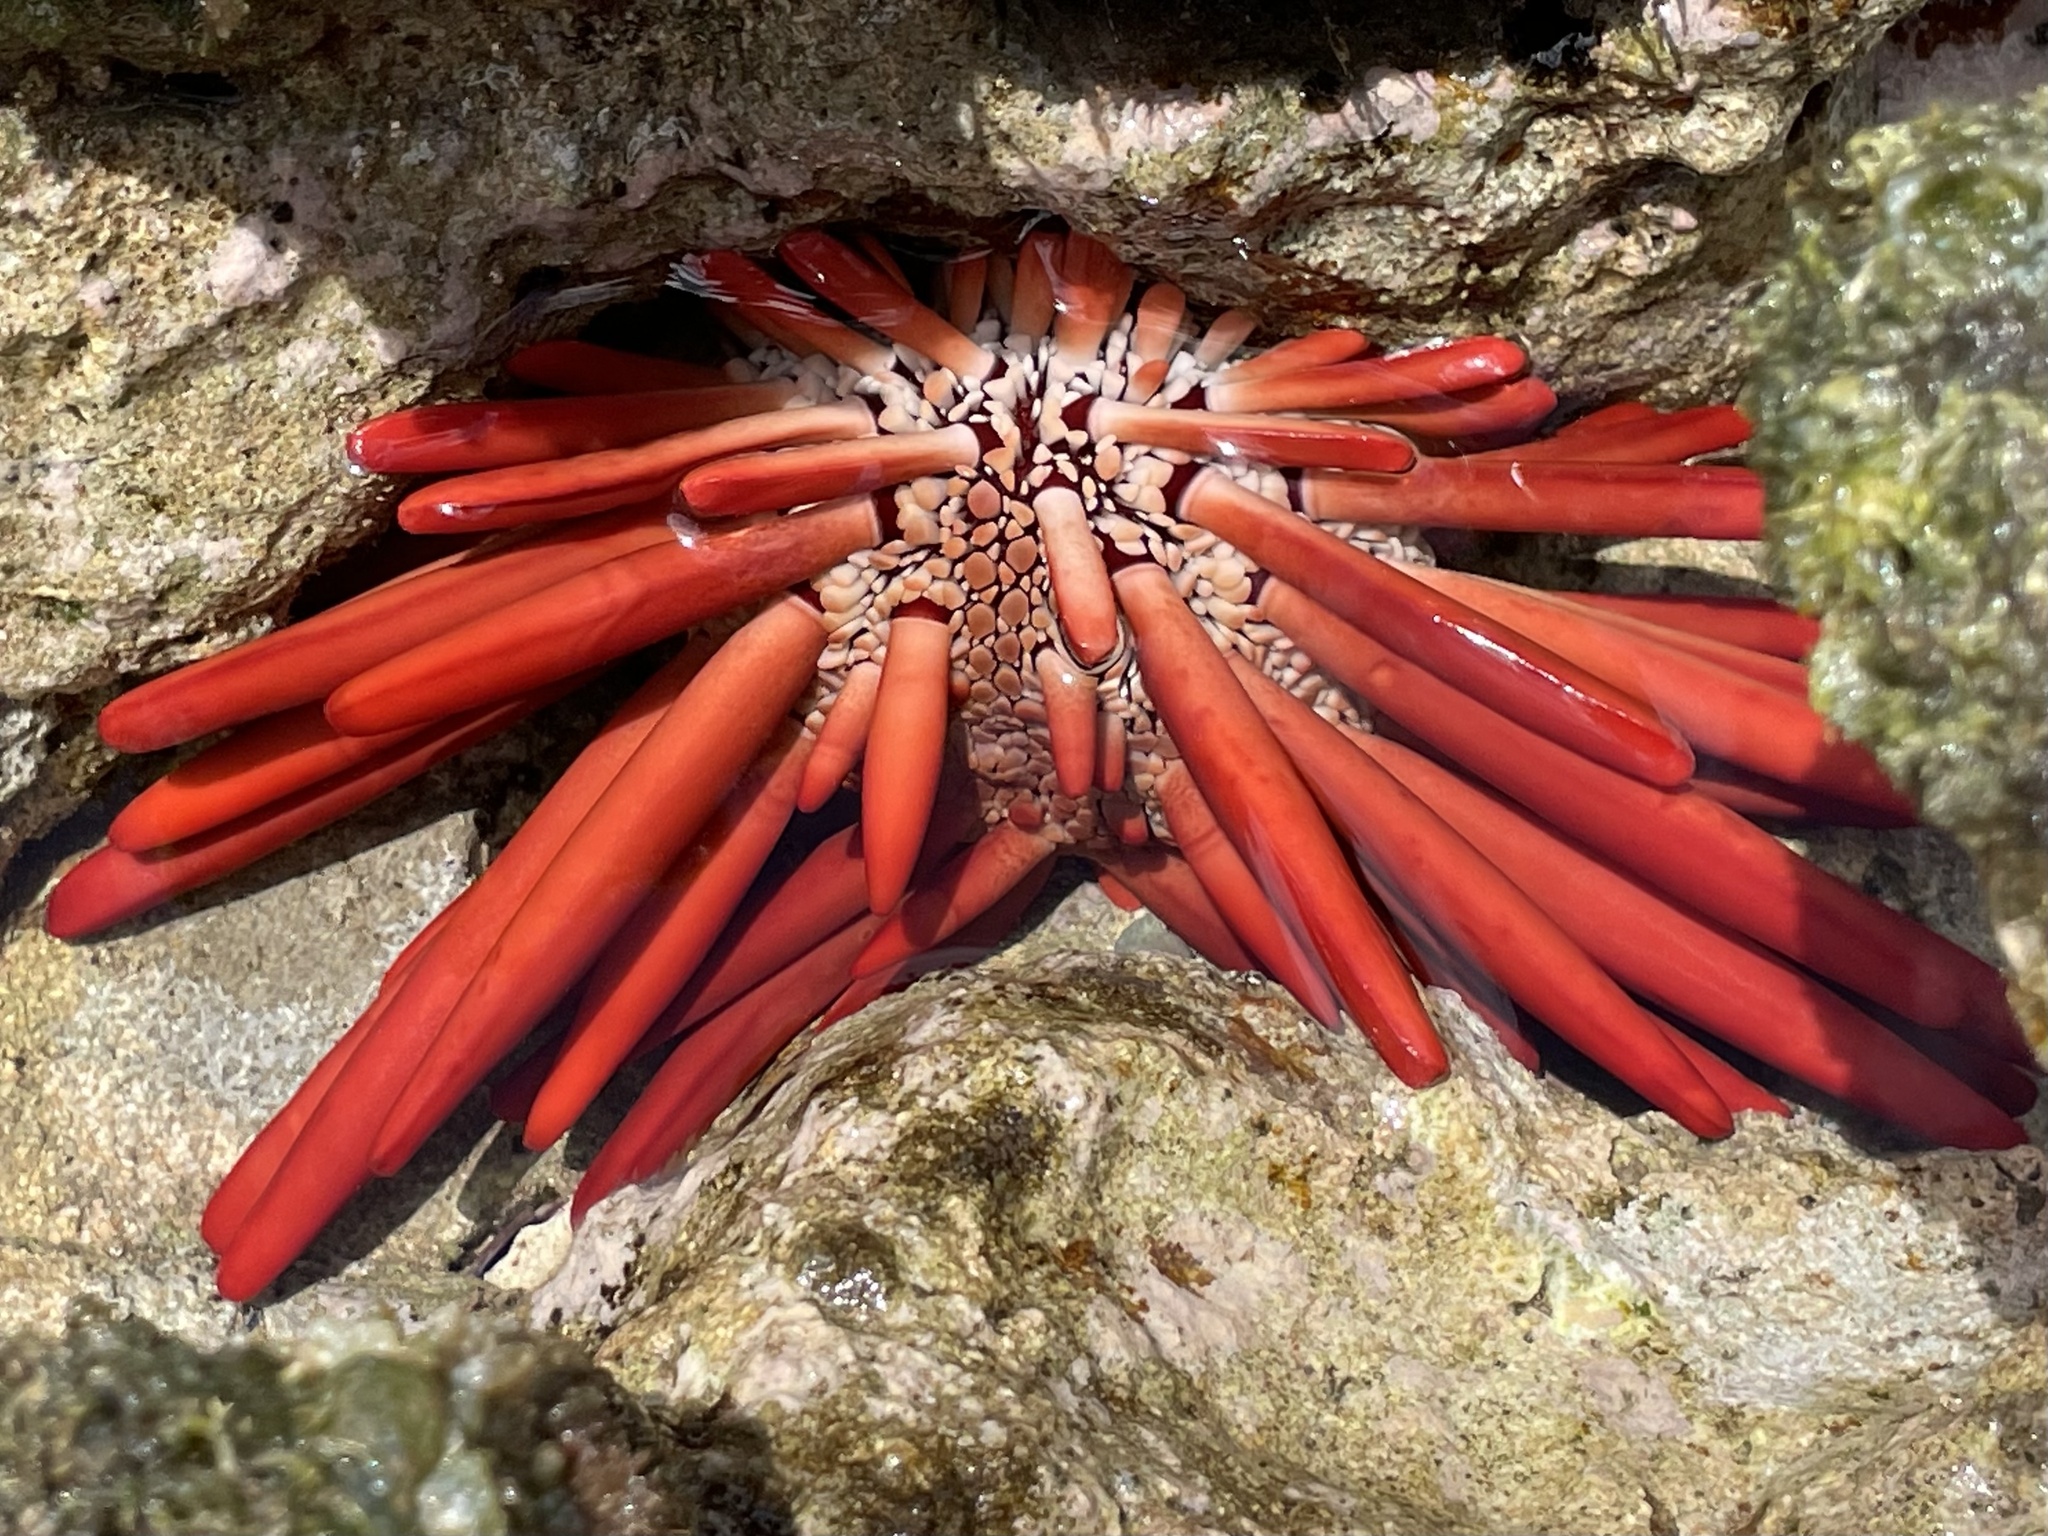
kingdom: Animalia
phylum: Echinodermata
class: Echinoidea
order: Camarodonta
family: Echinometridae
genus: Heterocentrotus
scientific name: Heterocentrotus mamillatus
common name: Slate pencil urchin
